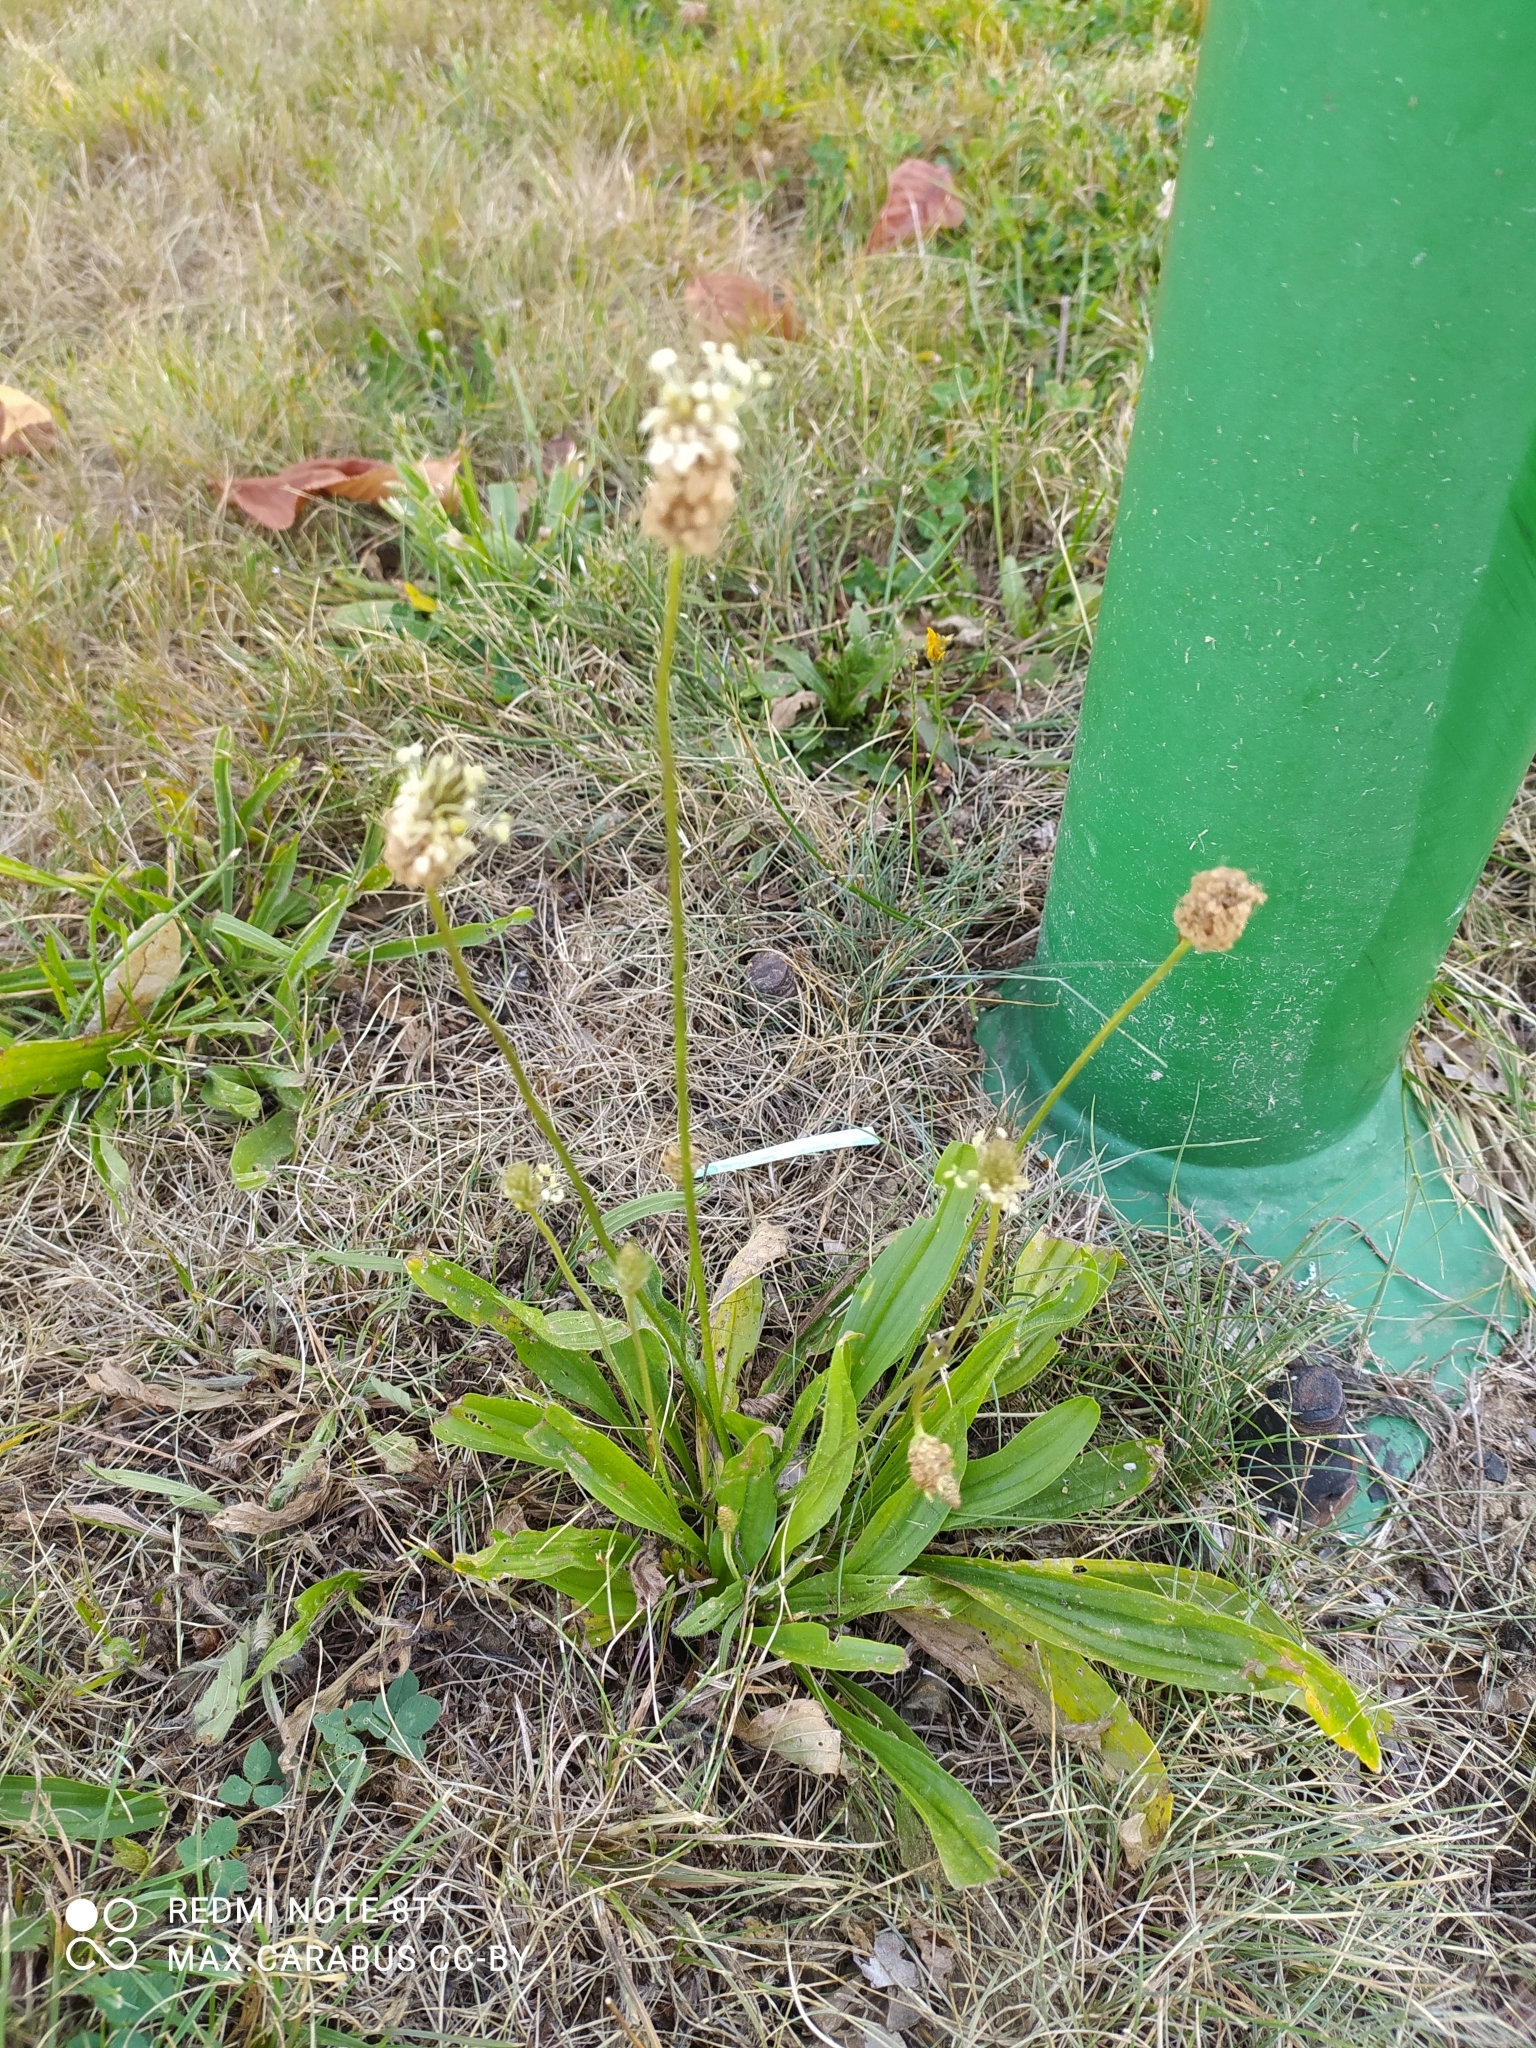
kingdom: Plantae
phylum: Tracheophyta
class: Magnoliopsida
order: Lamiales
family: Plantaginaceae
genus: Plantago
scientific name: Plantago lanceolata
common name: Ribwort plantain
